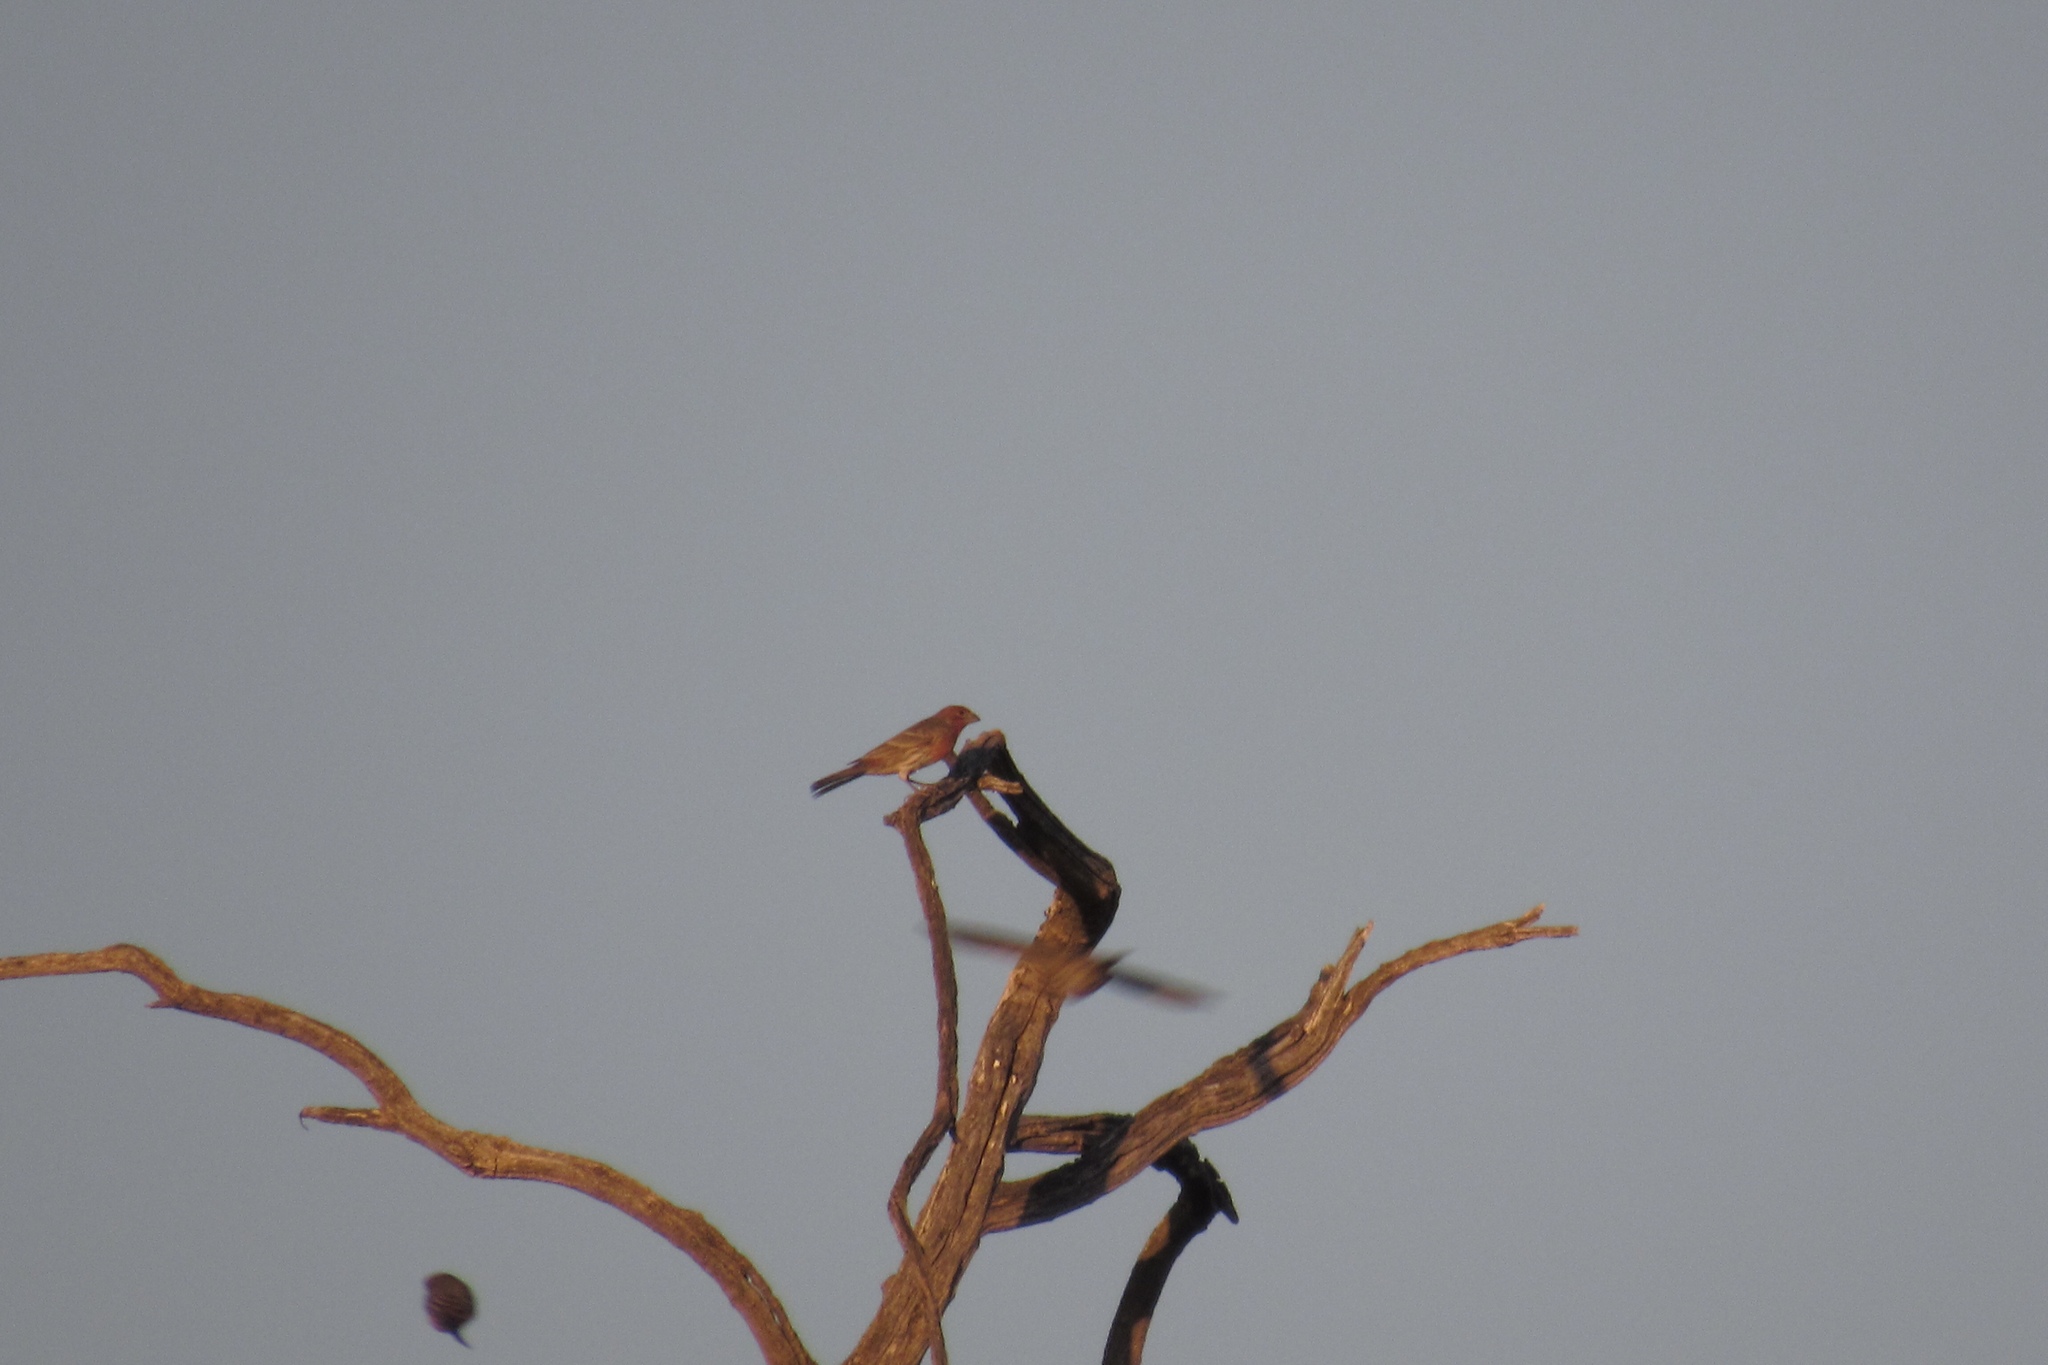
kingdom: Animalia
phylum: Chordata
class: Aves
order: Passeriformes
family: Fringillidae
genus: Haemorhous
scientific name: Haemorhous mexicanus
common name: House finch
